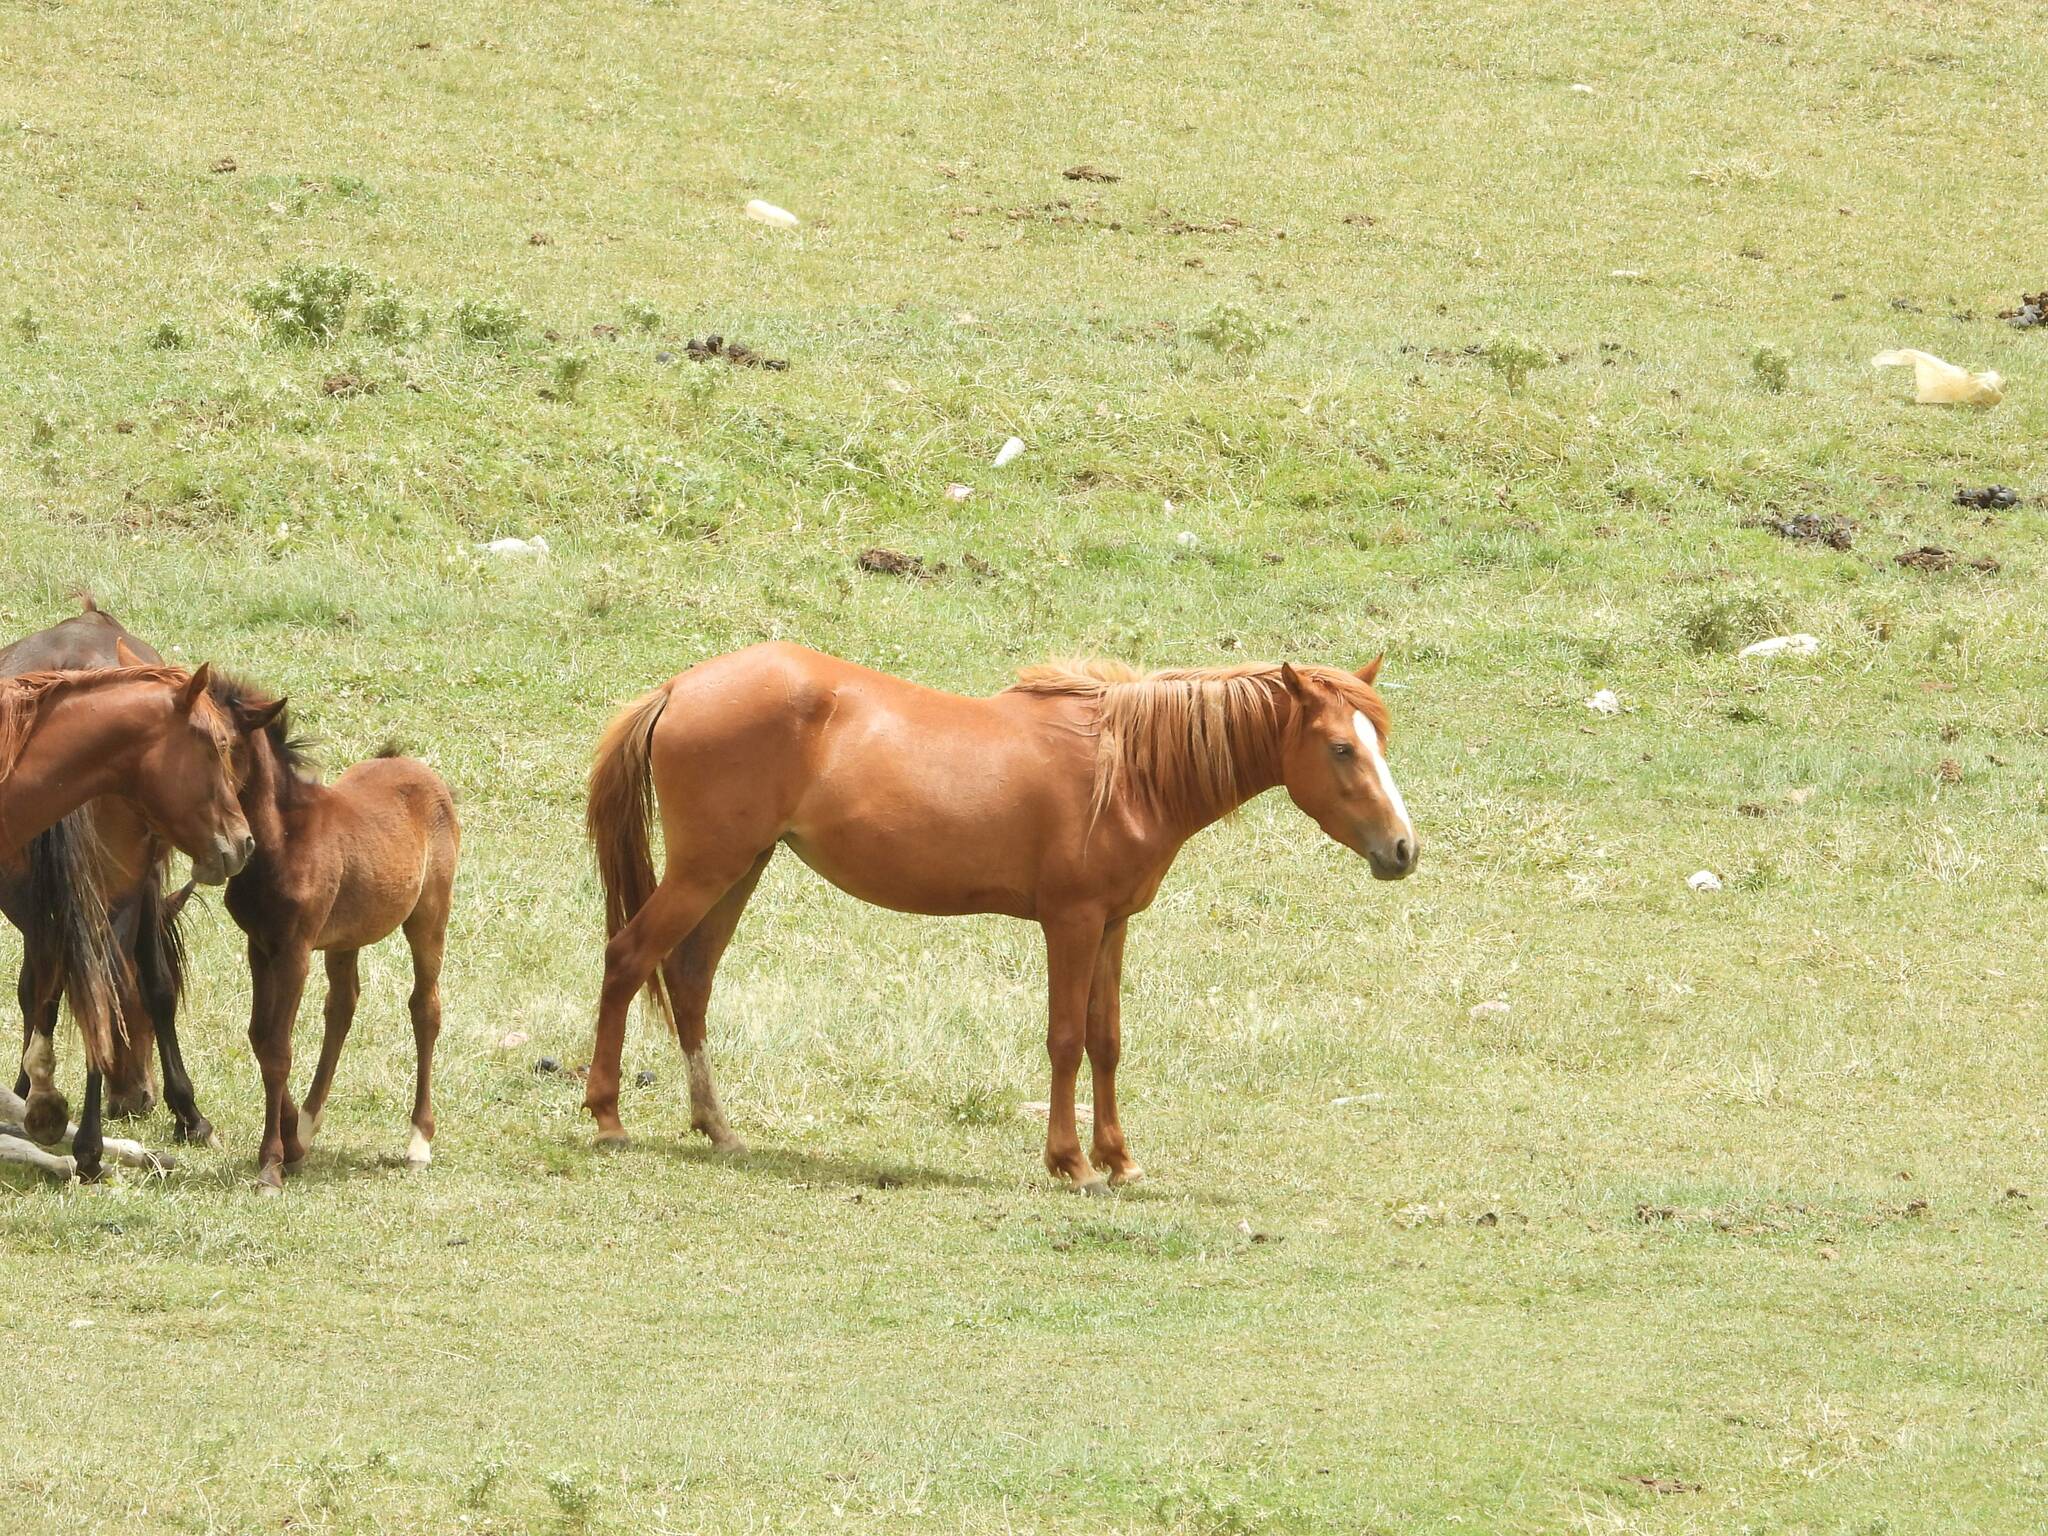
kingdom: Animalia
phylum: Chordata
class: Mammalia
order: Perissodactyla
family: Equidae
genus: Equus
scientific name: Equus caballus
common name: Horse
